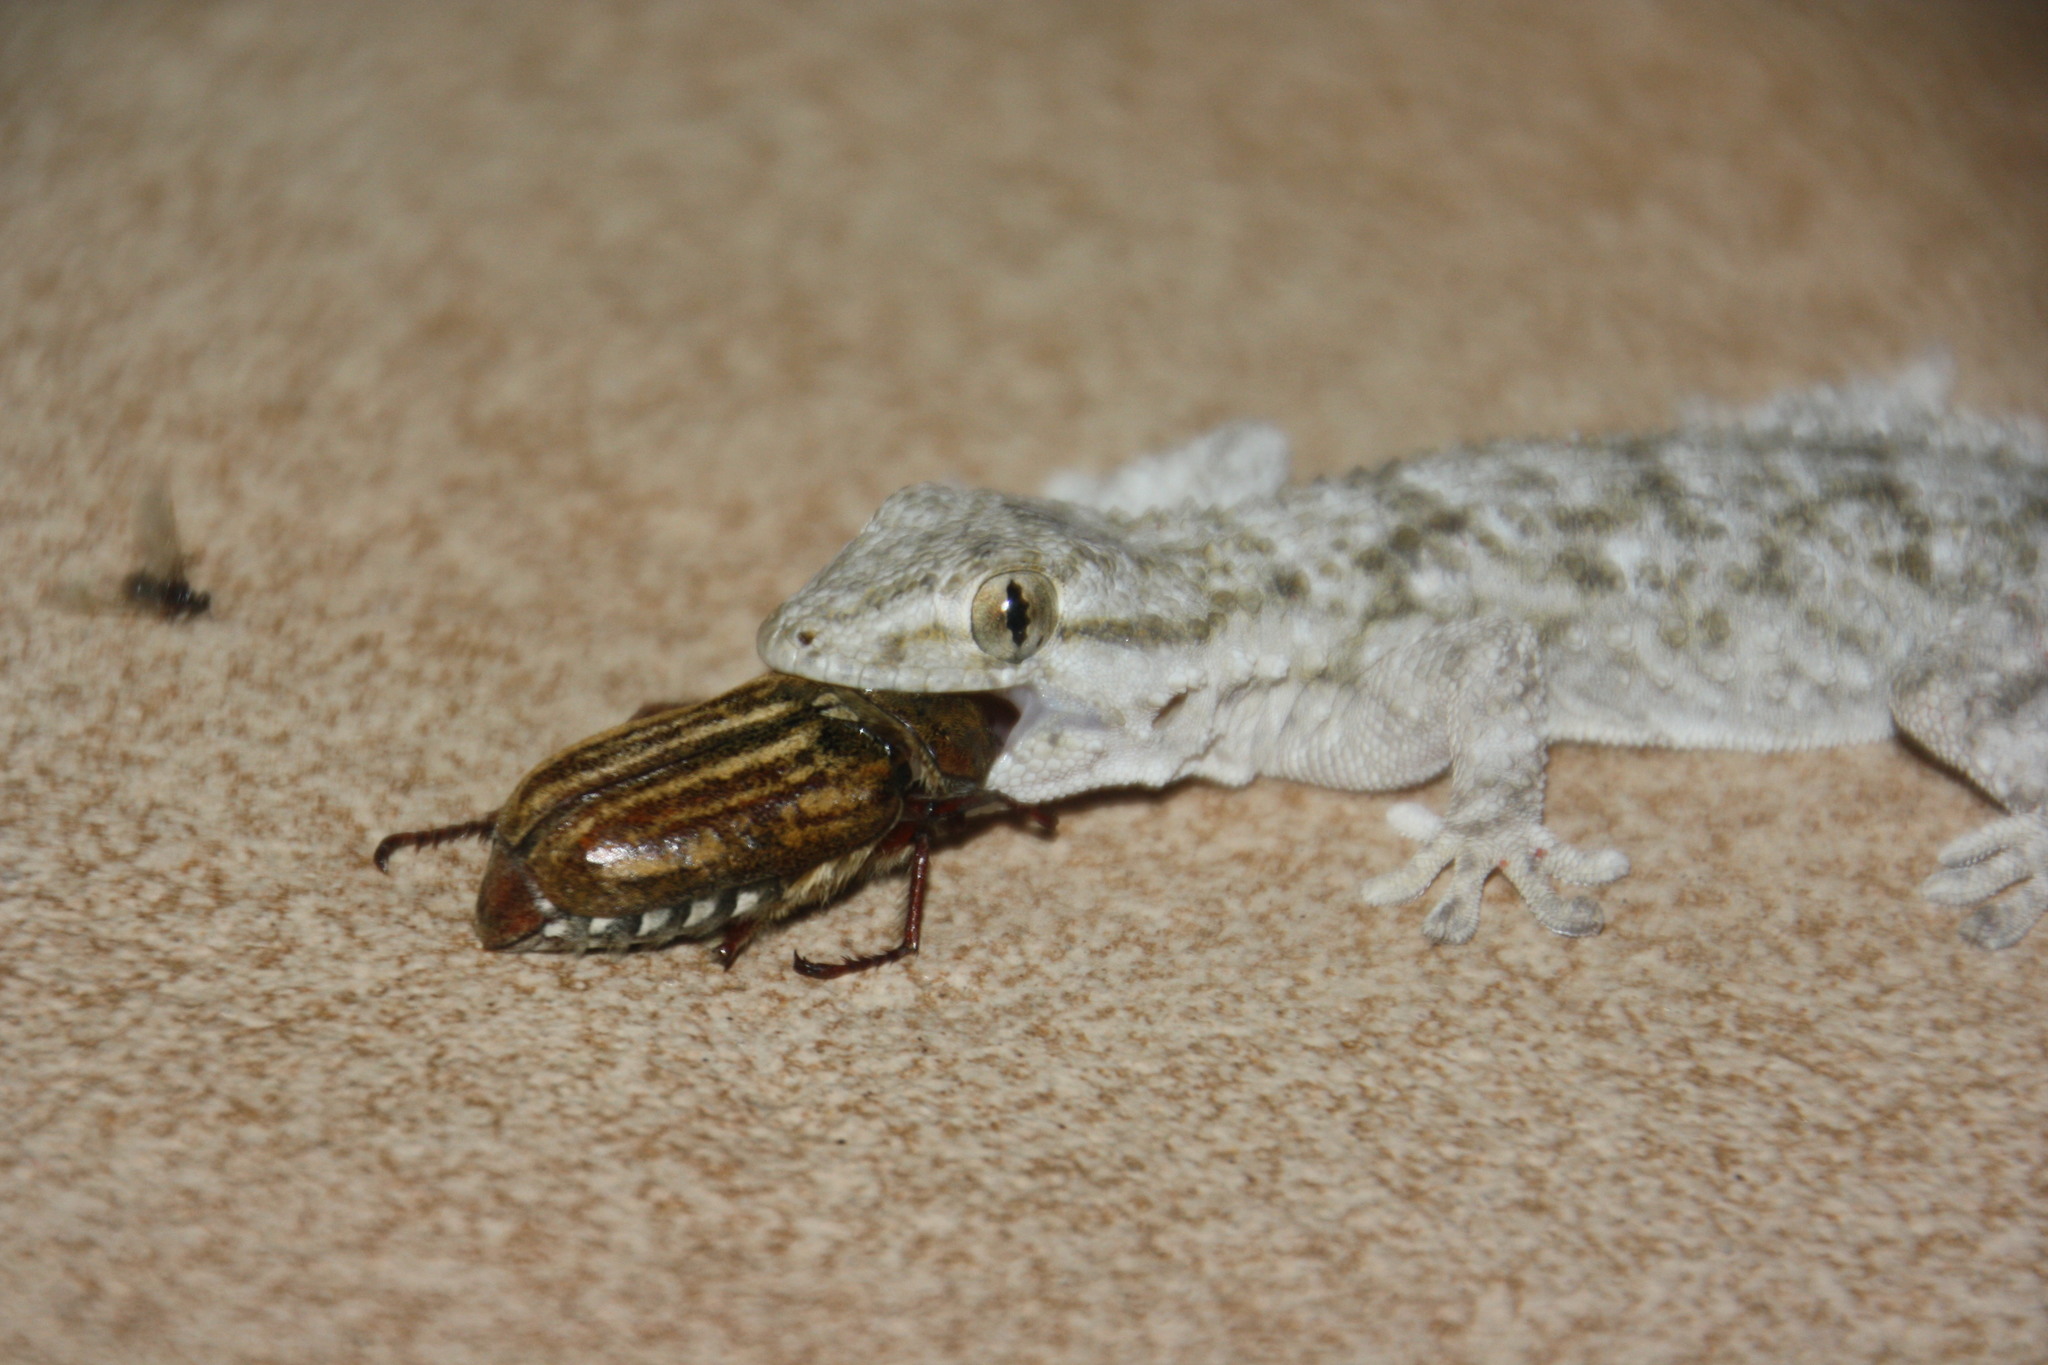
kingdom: Animalia
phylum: Chordata
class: Squamata
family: Phyllodactylidae
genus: Tarentola
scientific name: Tarentola mauritanica
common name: Moorish gecko
